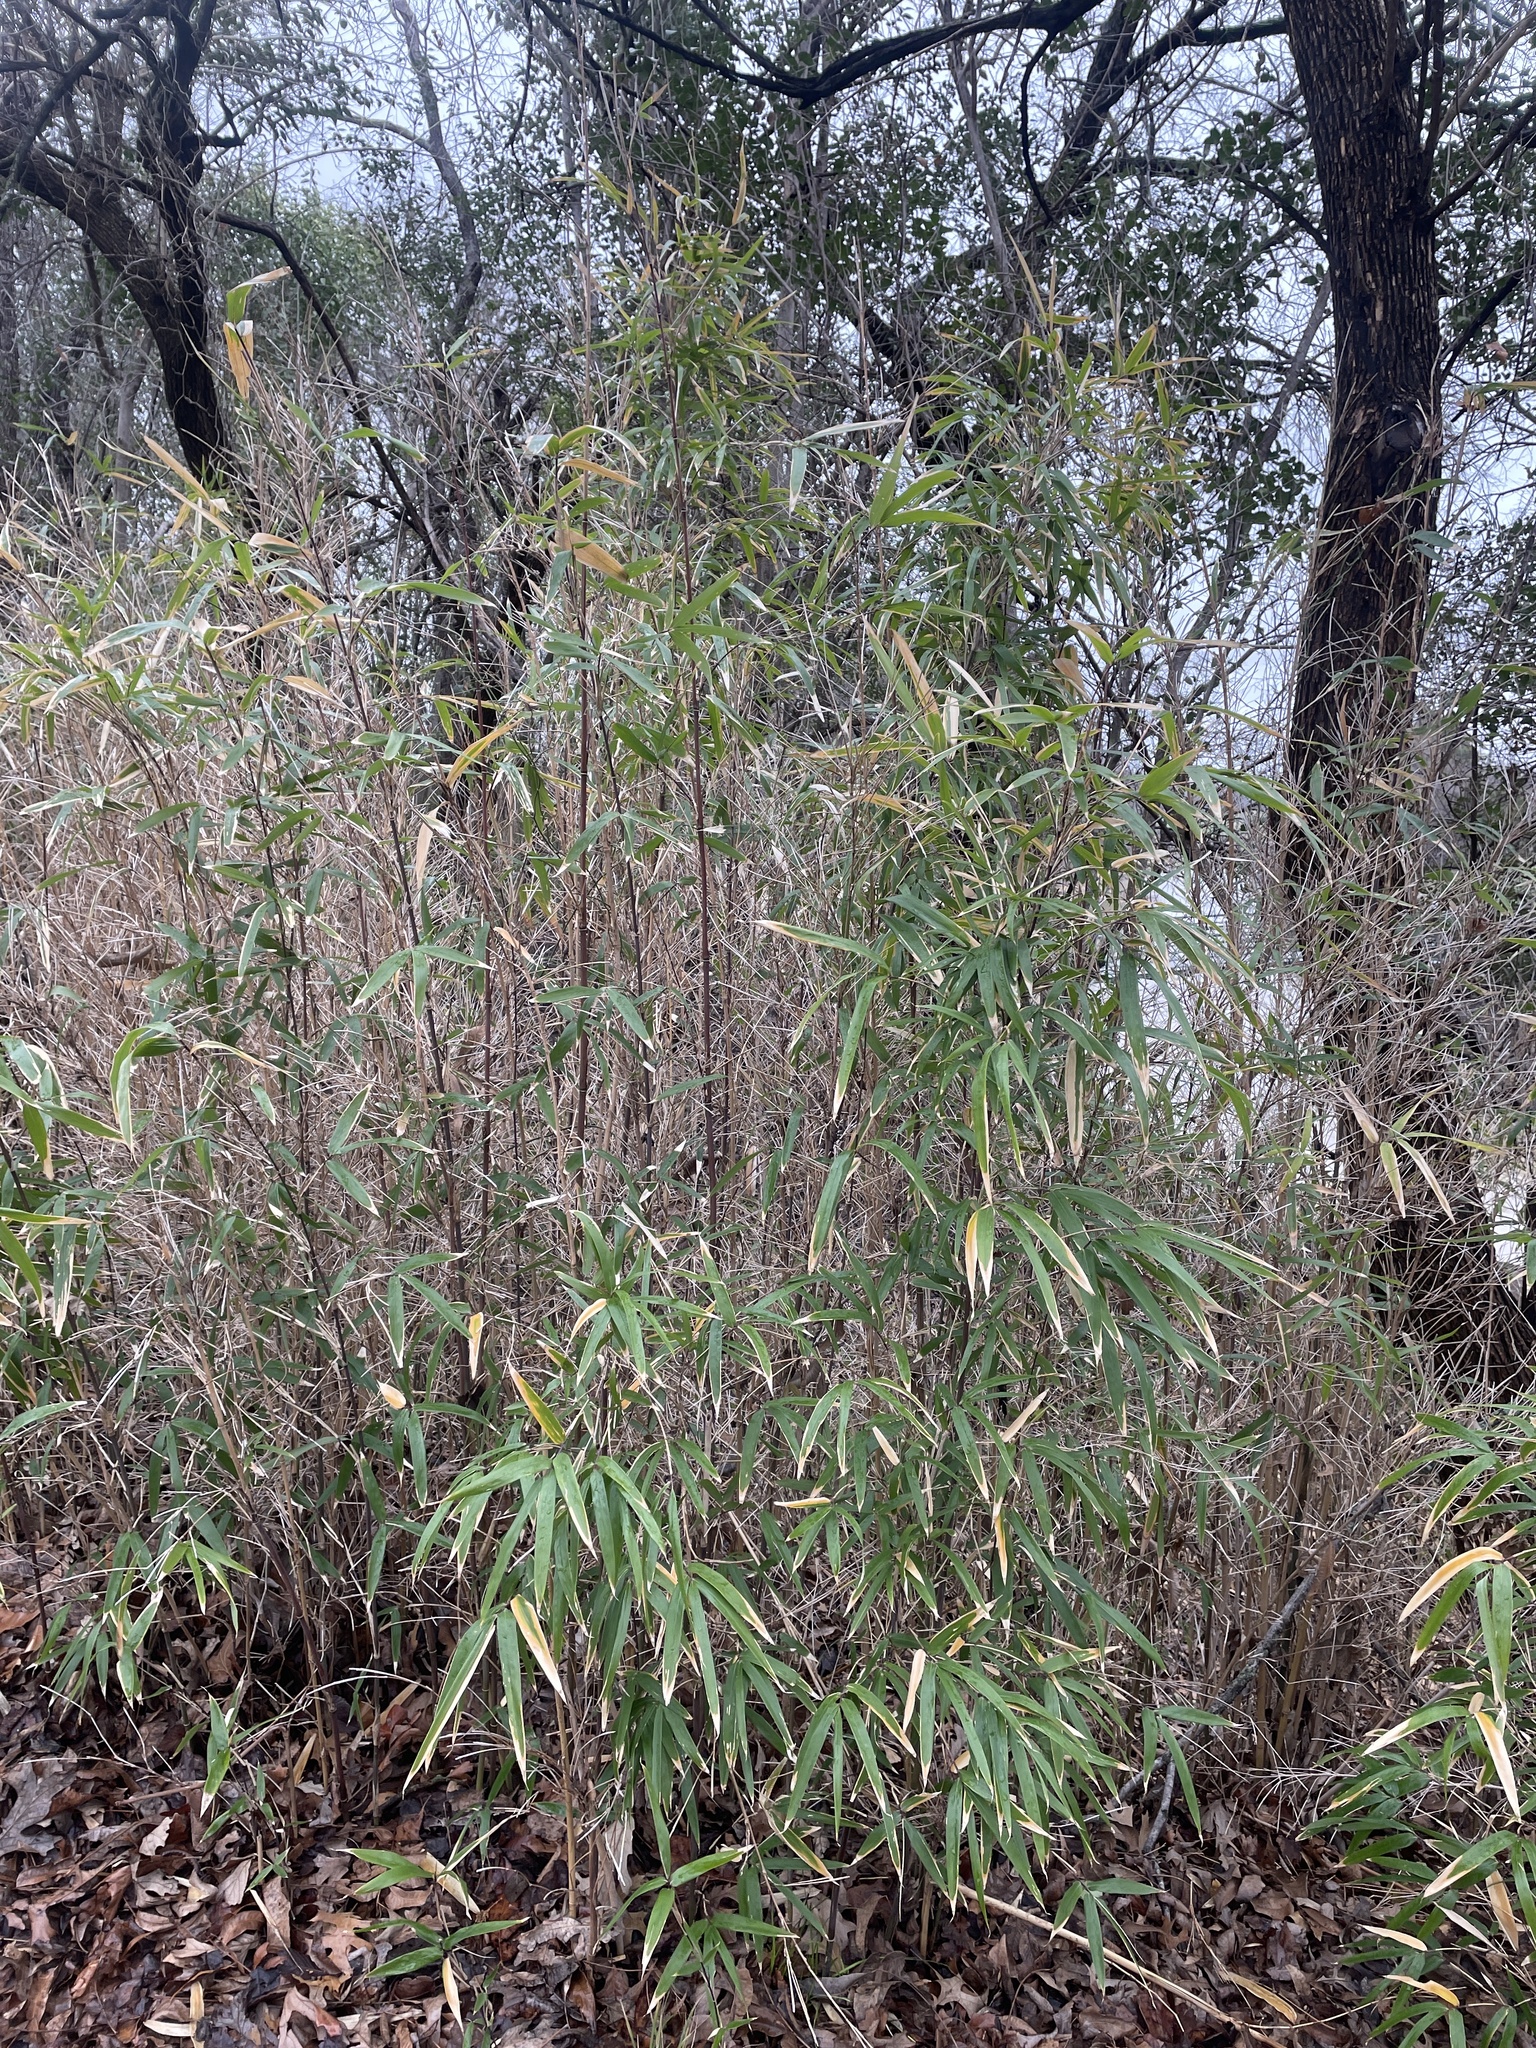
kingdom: Plantae
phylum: Tracheophyta
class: Liliopsida
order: Poales
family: Poaceae
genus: Phyllostachys
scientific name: Phyllostachys aurea
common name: Golden bamboo
